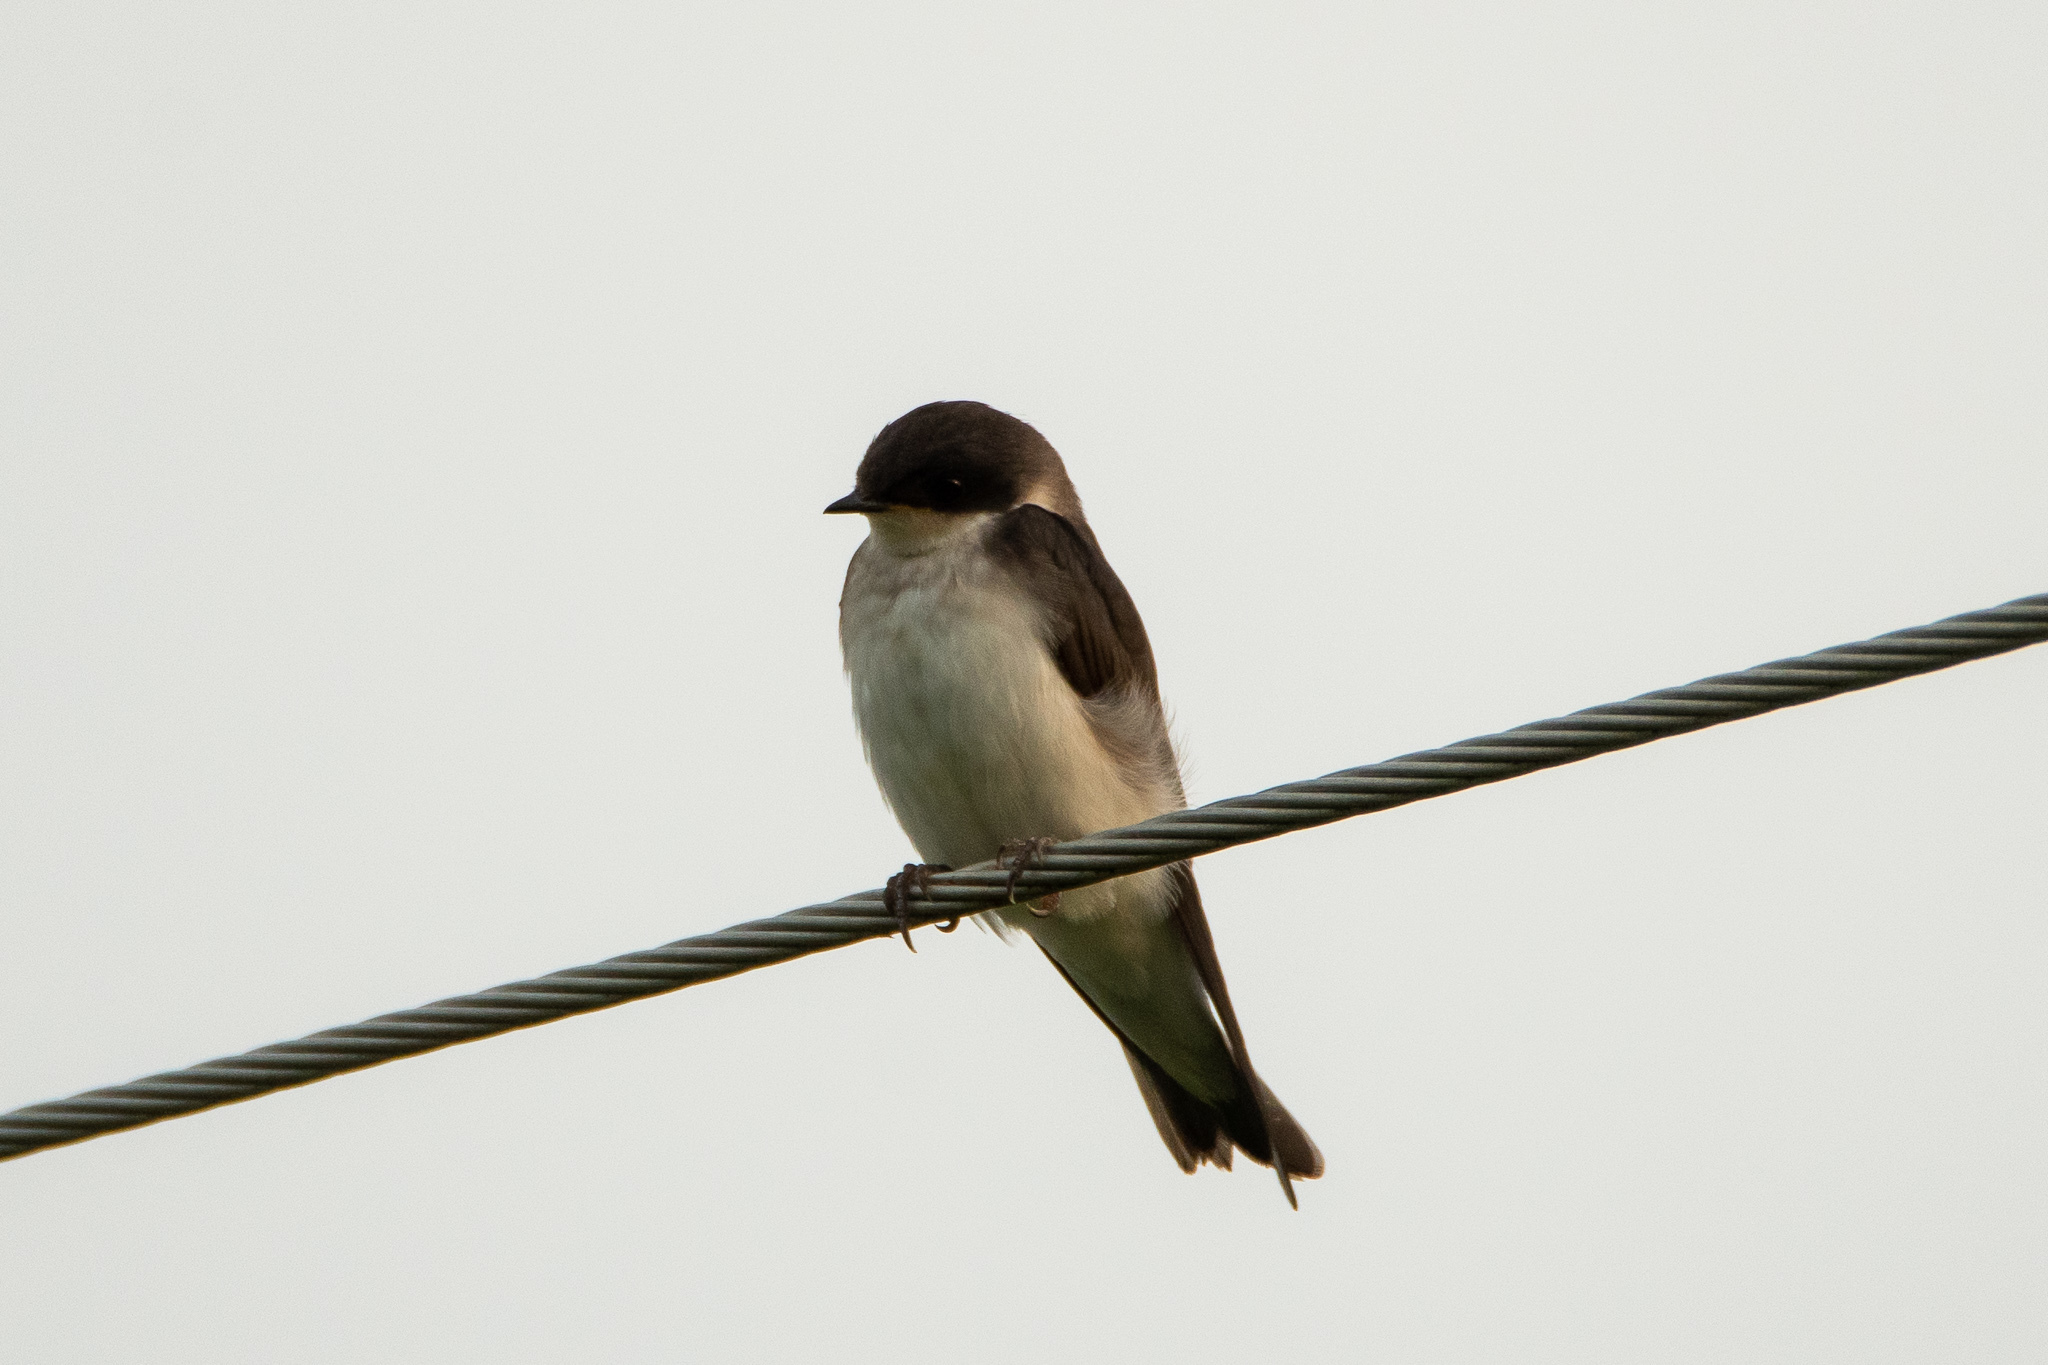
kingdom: Animalia
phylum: Chordata
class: Aves
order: Passeriformes
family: Hirundinidae
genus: Tachycineta
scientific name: Tachycineta bicolor
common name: Tree swallow
